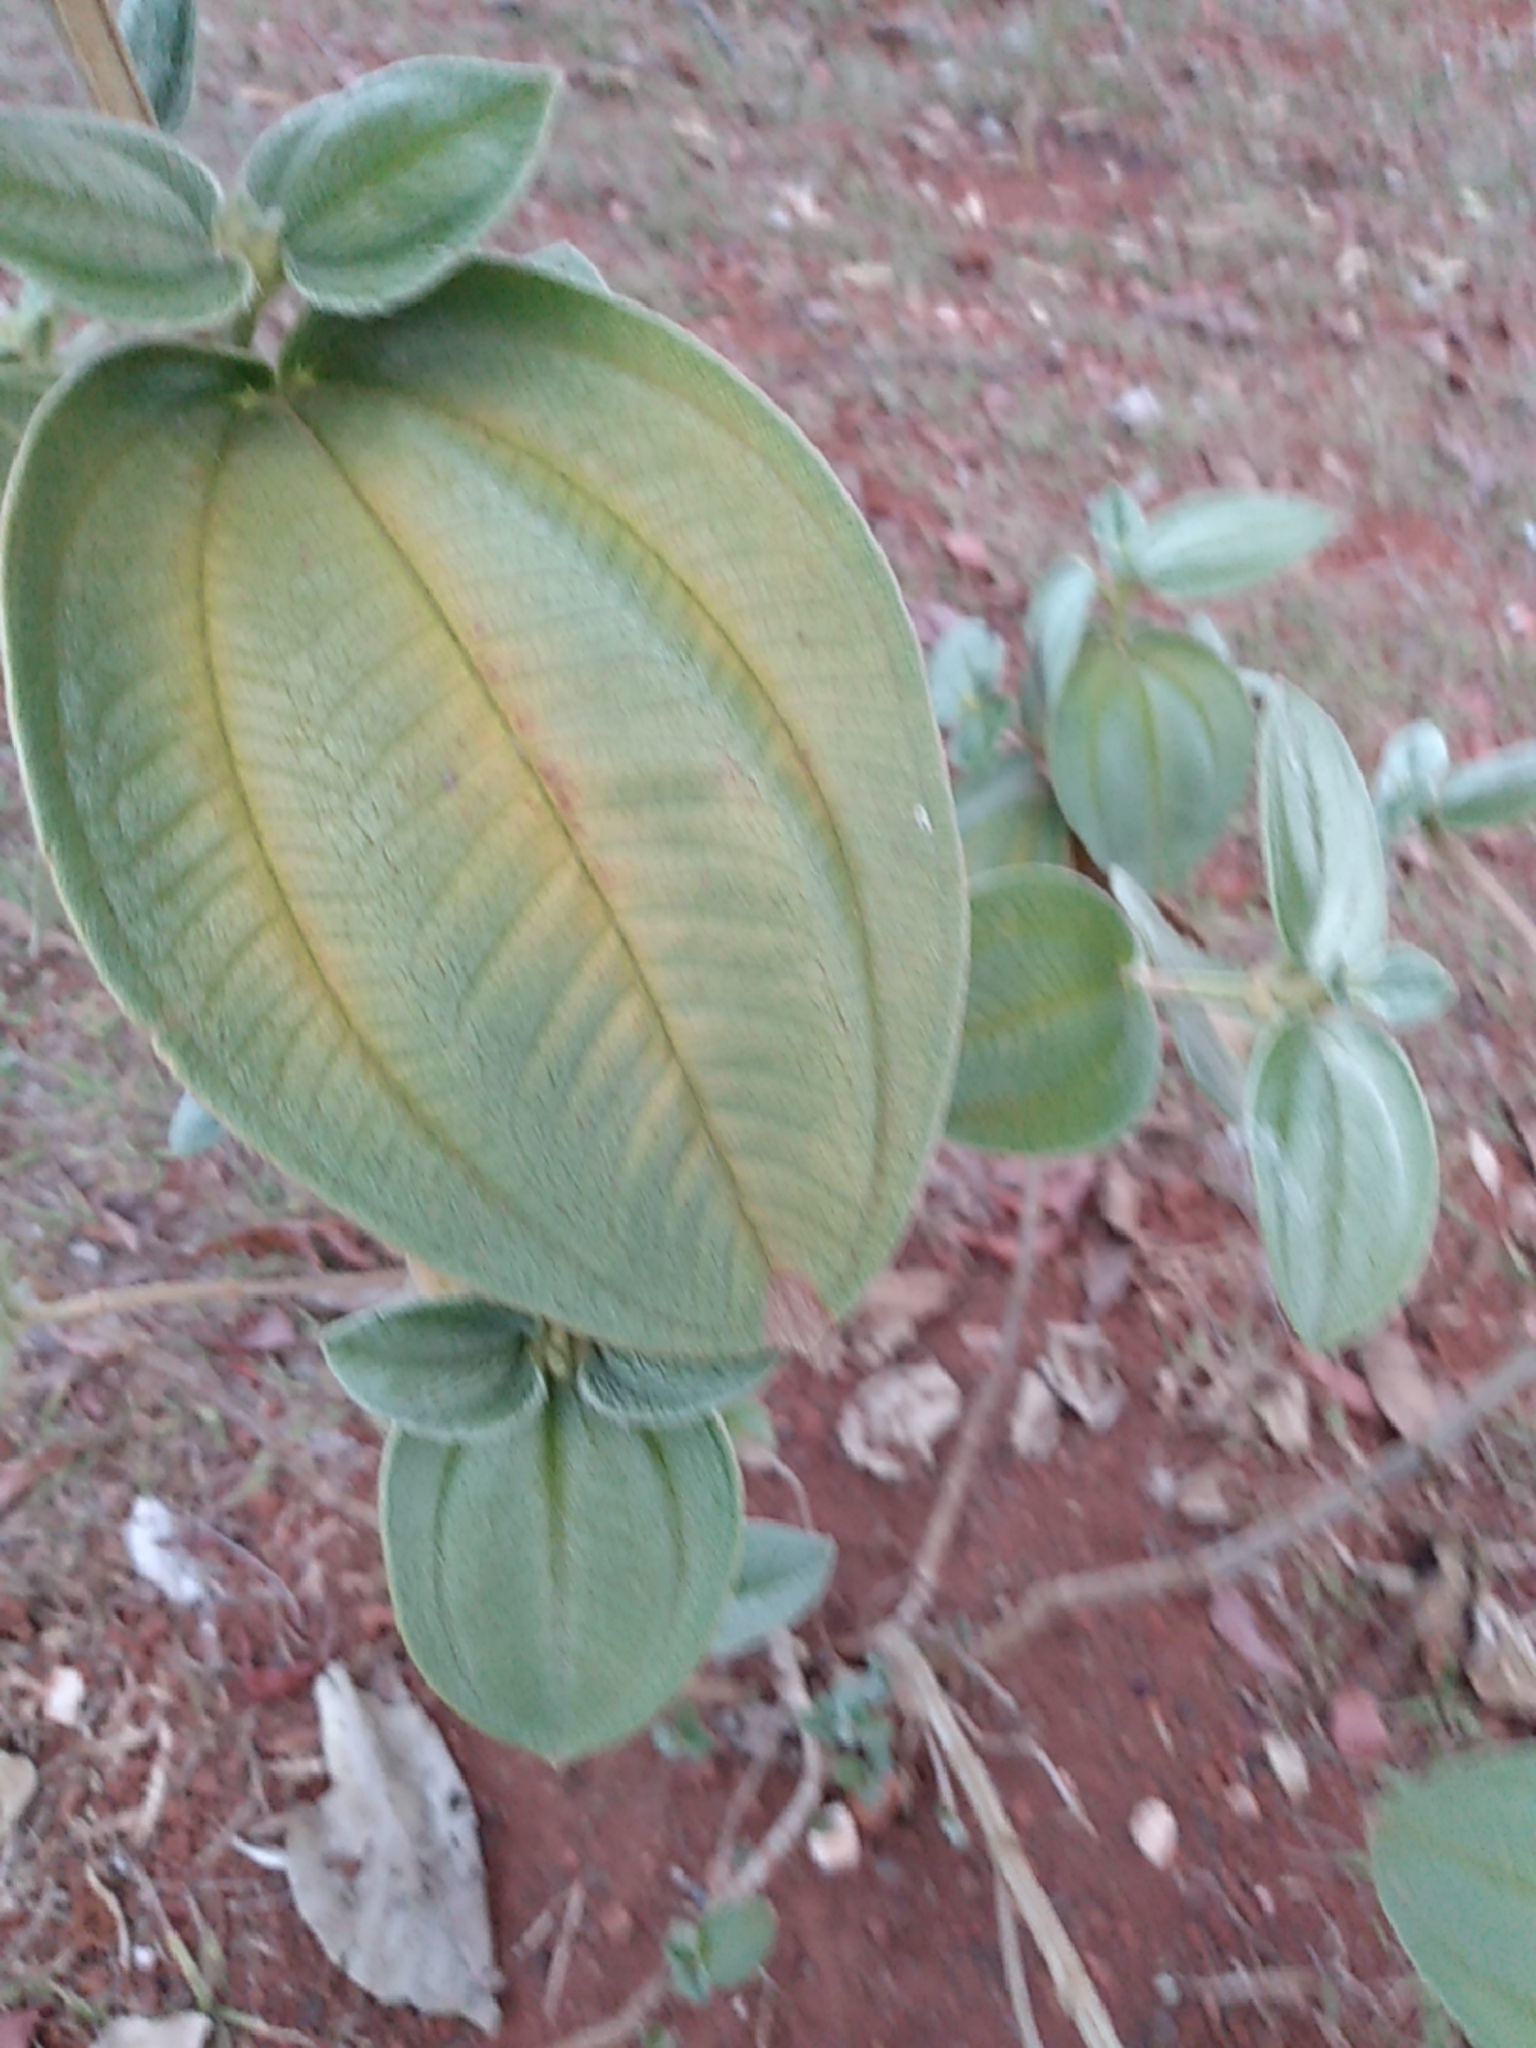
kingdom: Plantae
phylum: Tracheophyta
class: Magnoliopsida
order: Myrtales
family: Melastomataceae
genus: Pleroma
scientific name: Pleroma urvilleanum
